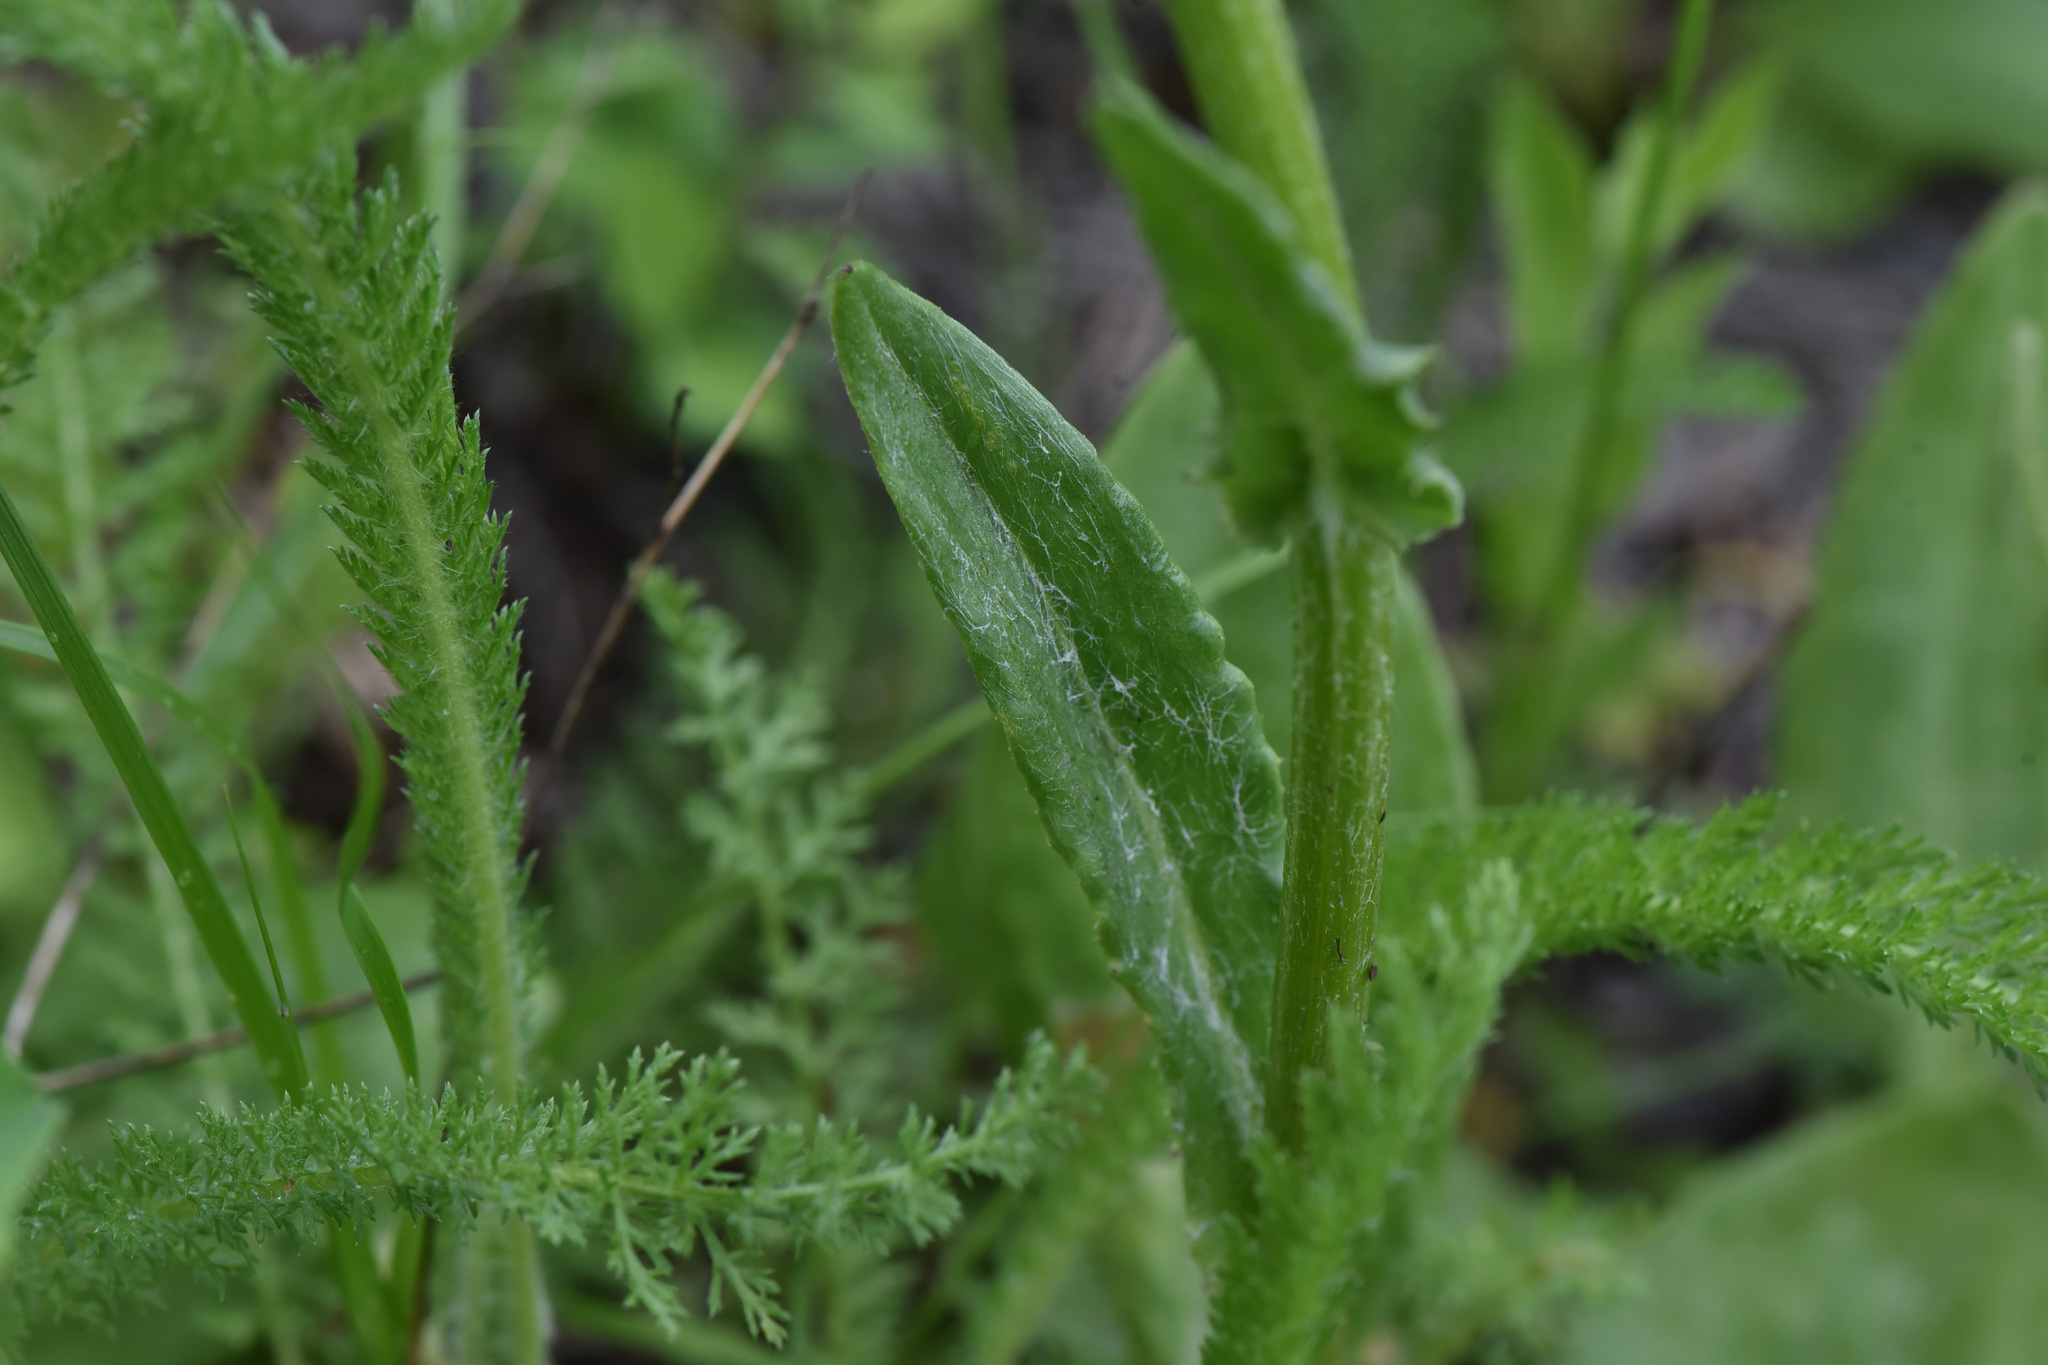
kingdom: Plantae
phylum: Tracheophyta
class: Magnoliopsida
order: Asterales
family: Asteraceae
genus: Senecio
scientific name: Senecio integerrimus
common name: Gaugeplant
